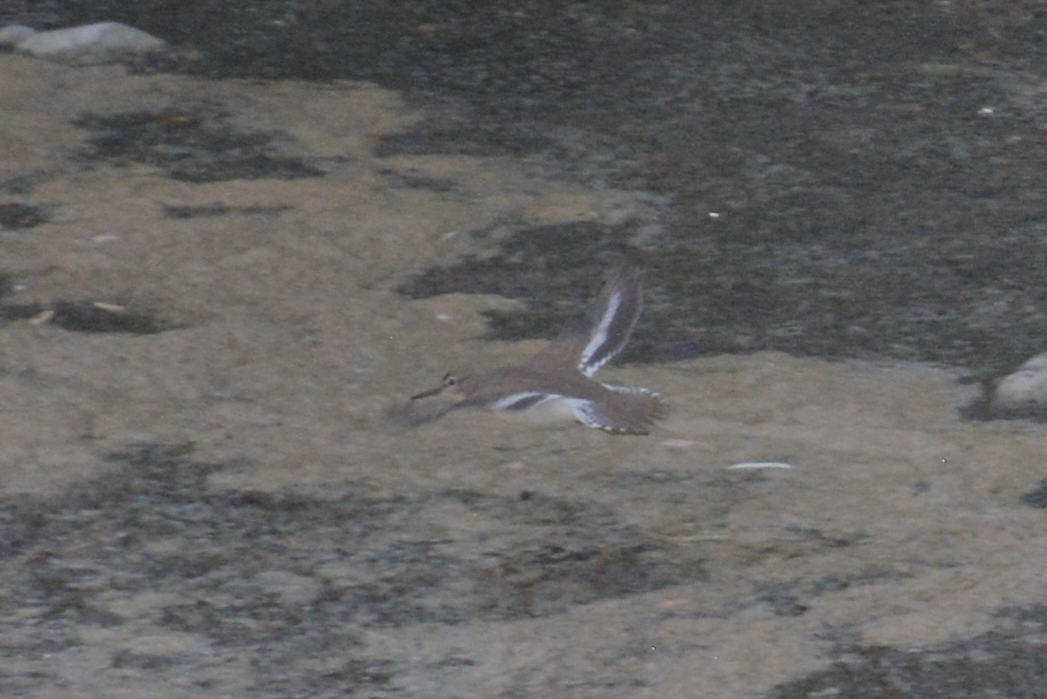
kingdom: Animalia
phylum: Chordata
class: Aves
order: Charadriiformes
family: Scolopacidae
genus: Actitis
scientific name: Actitis hypoleucos
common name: Common sandpiper
